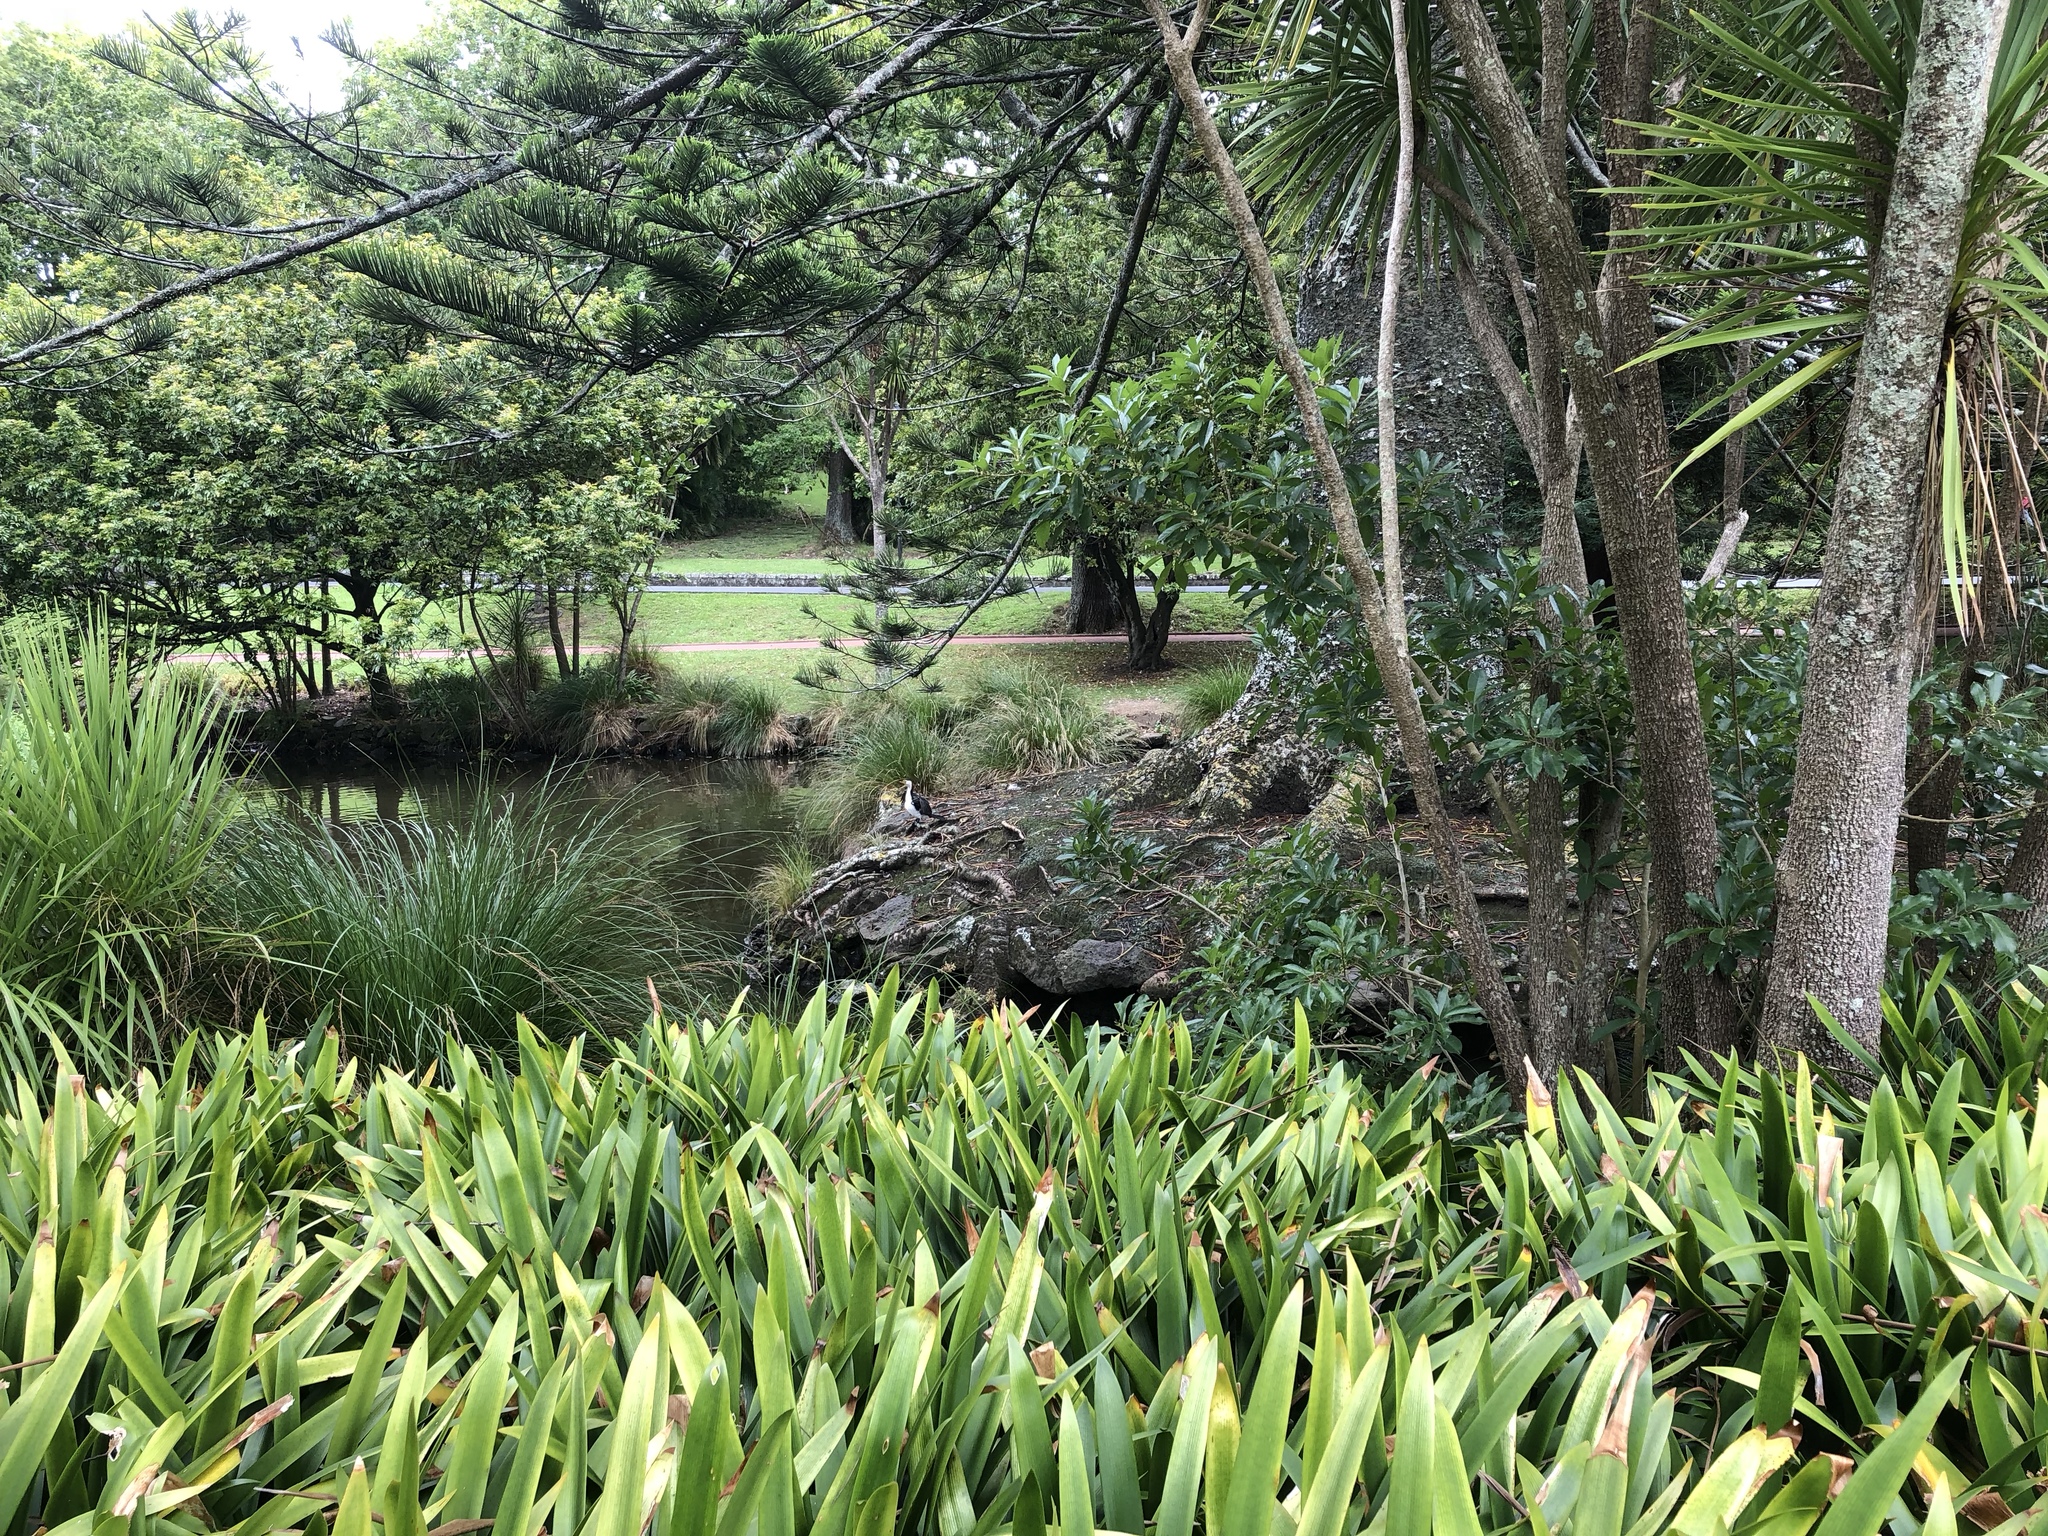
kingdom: Animalia
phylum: Chordata
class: Aves
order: Suliformes
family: Phalacrocoracidae
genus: Microcarbo
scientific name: Microcarbo melanoleucos
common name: Little pied cormorant
